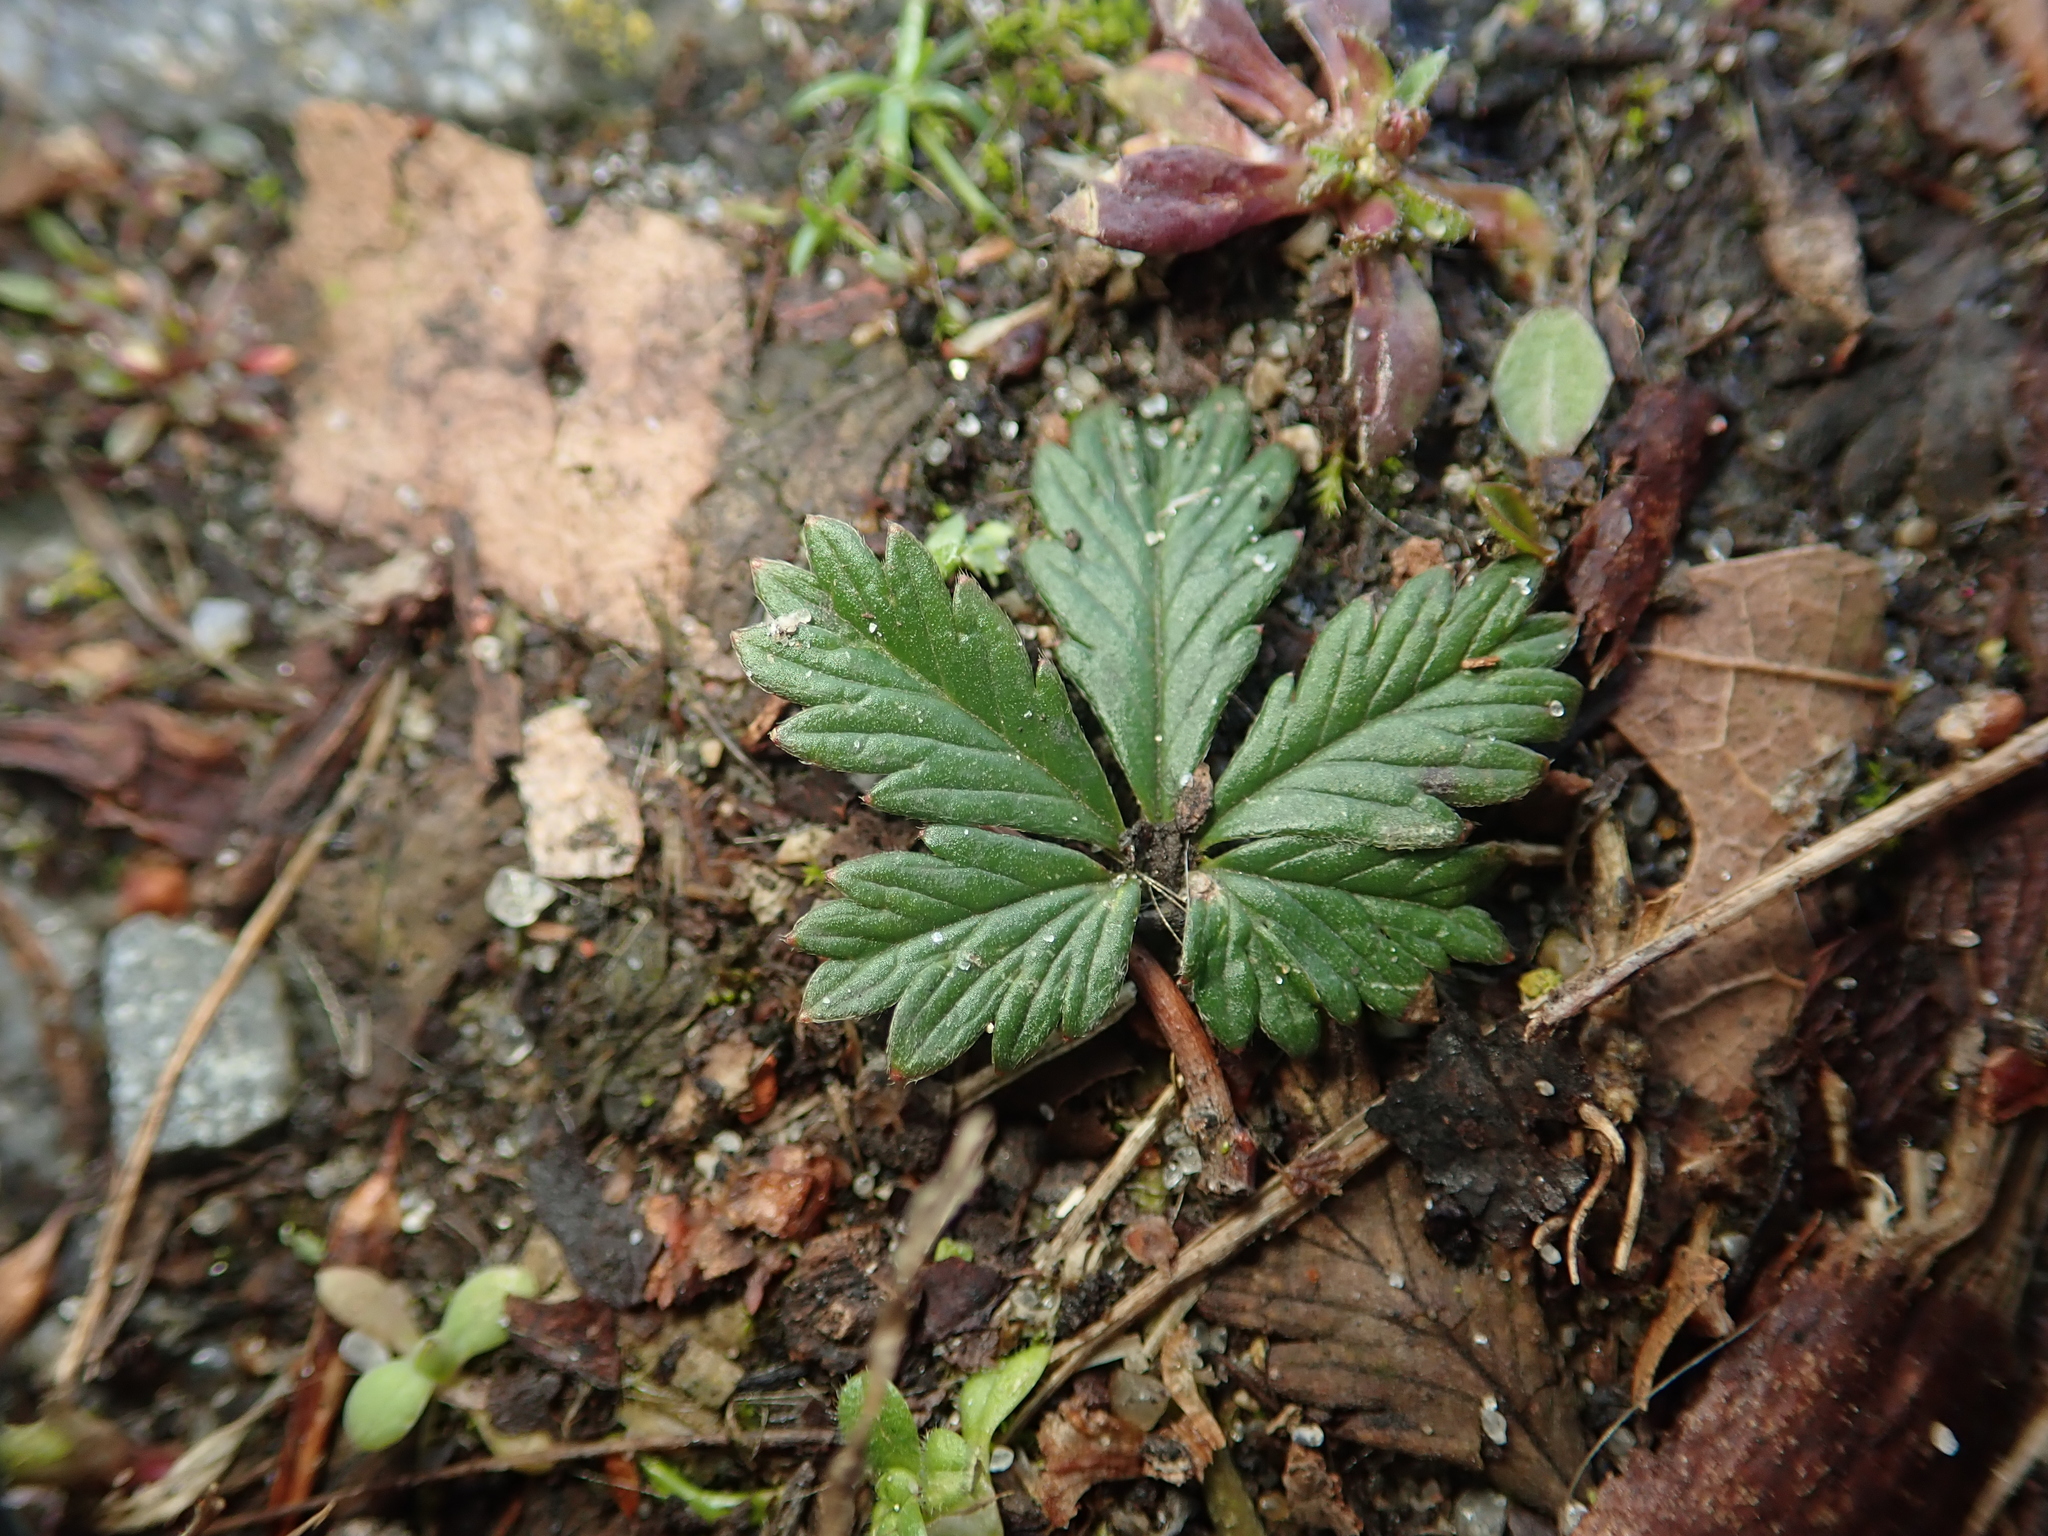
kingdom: Plantae
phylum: Tracheophyta
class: Magnoliopsida
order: Rosales
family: Rosaceae
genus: Potentilla
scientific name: Potentilla argentea
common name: Hoary cinquefoil
